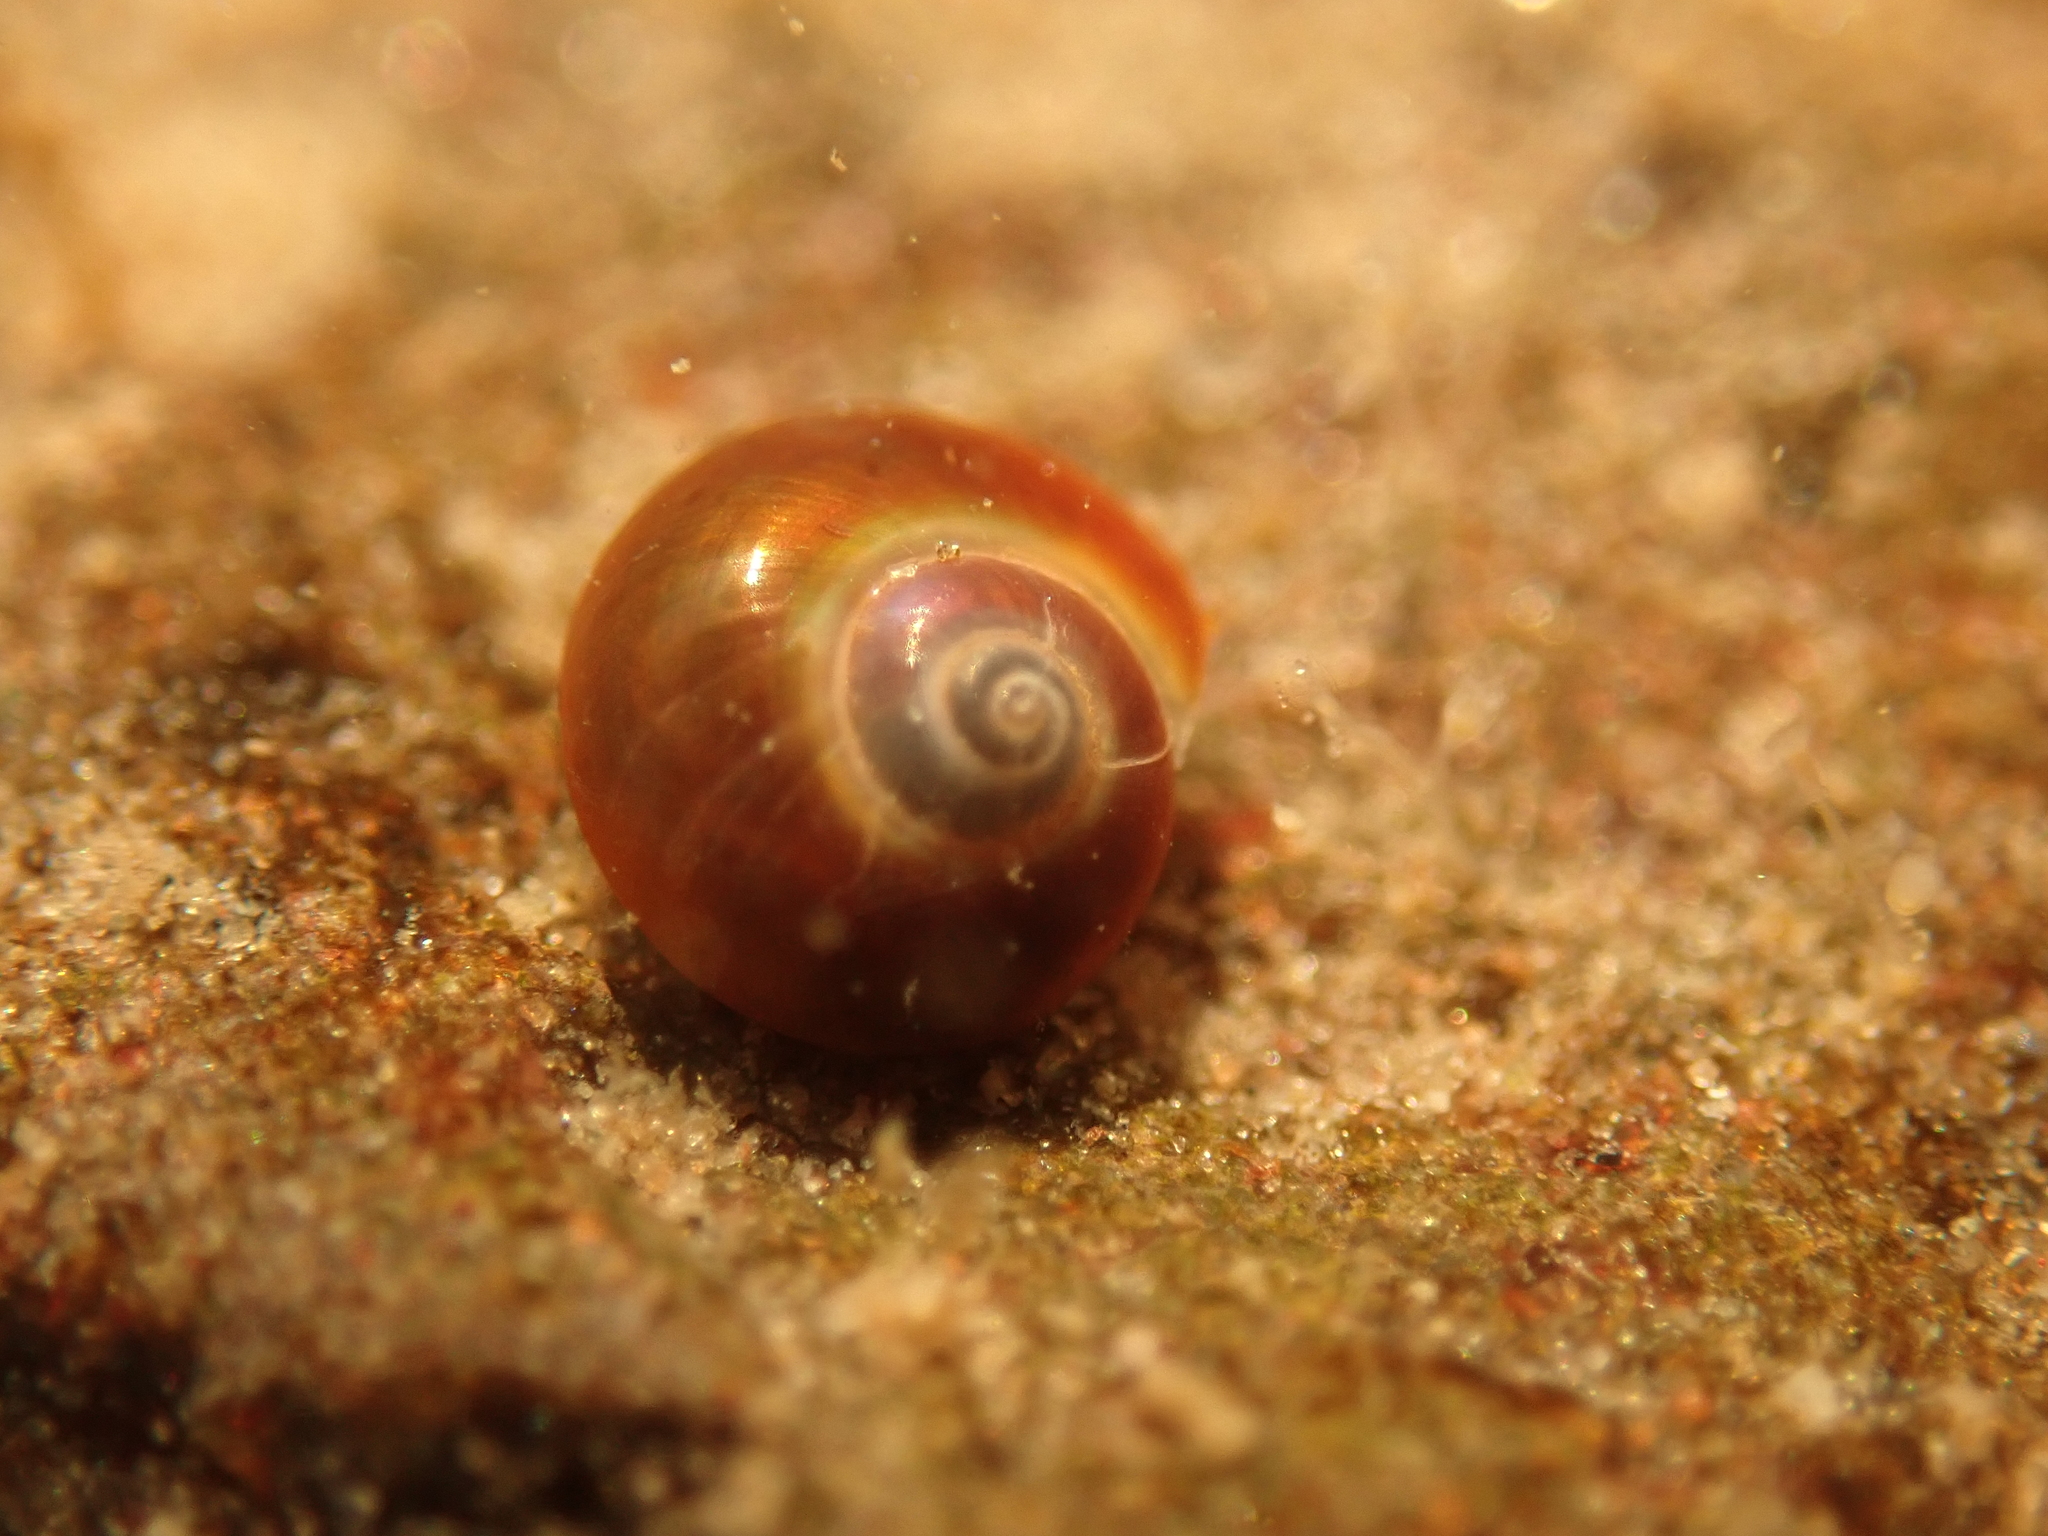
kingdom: Animalia
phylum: Mollusca
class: Gastropoda
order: Trochida
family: Margaritidae
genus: Margarites
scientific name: Margarites helicinus
